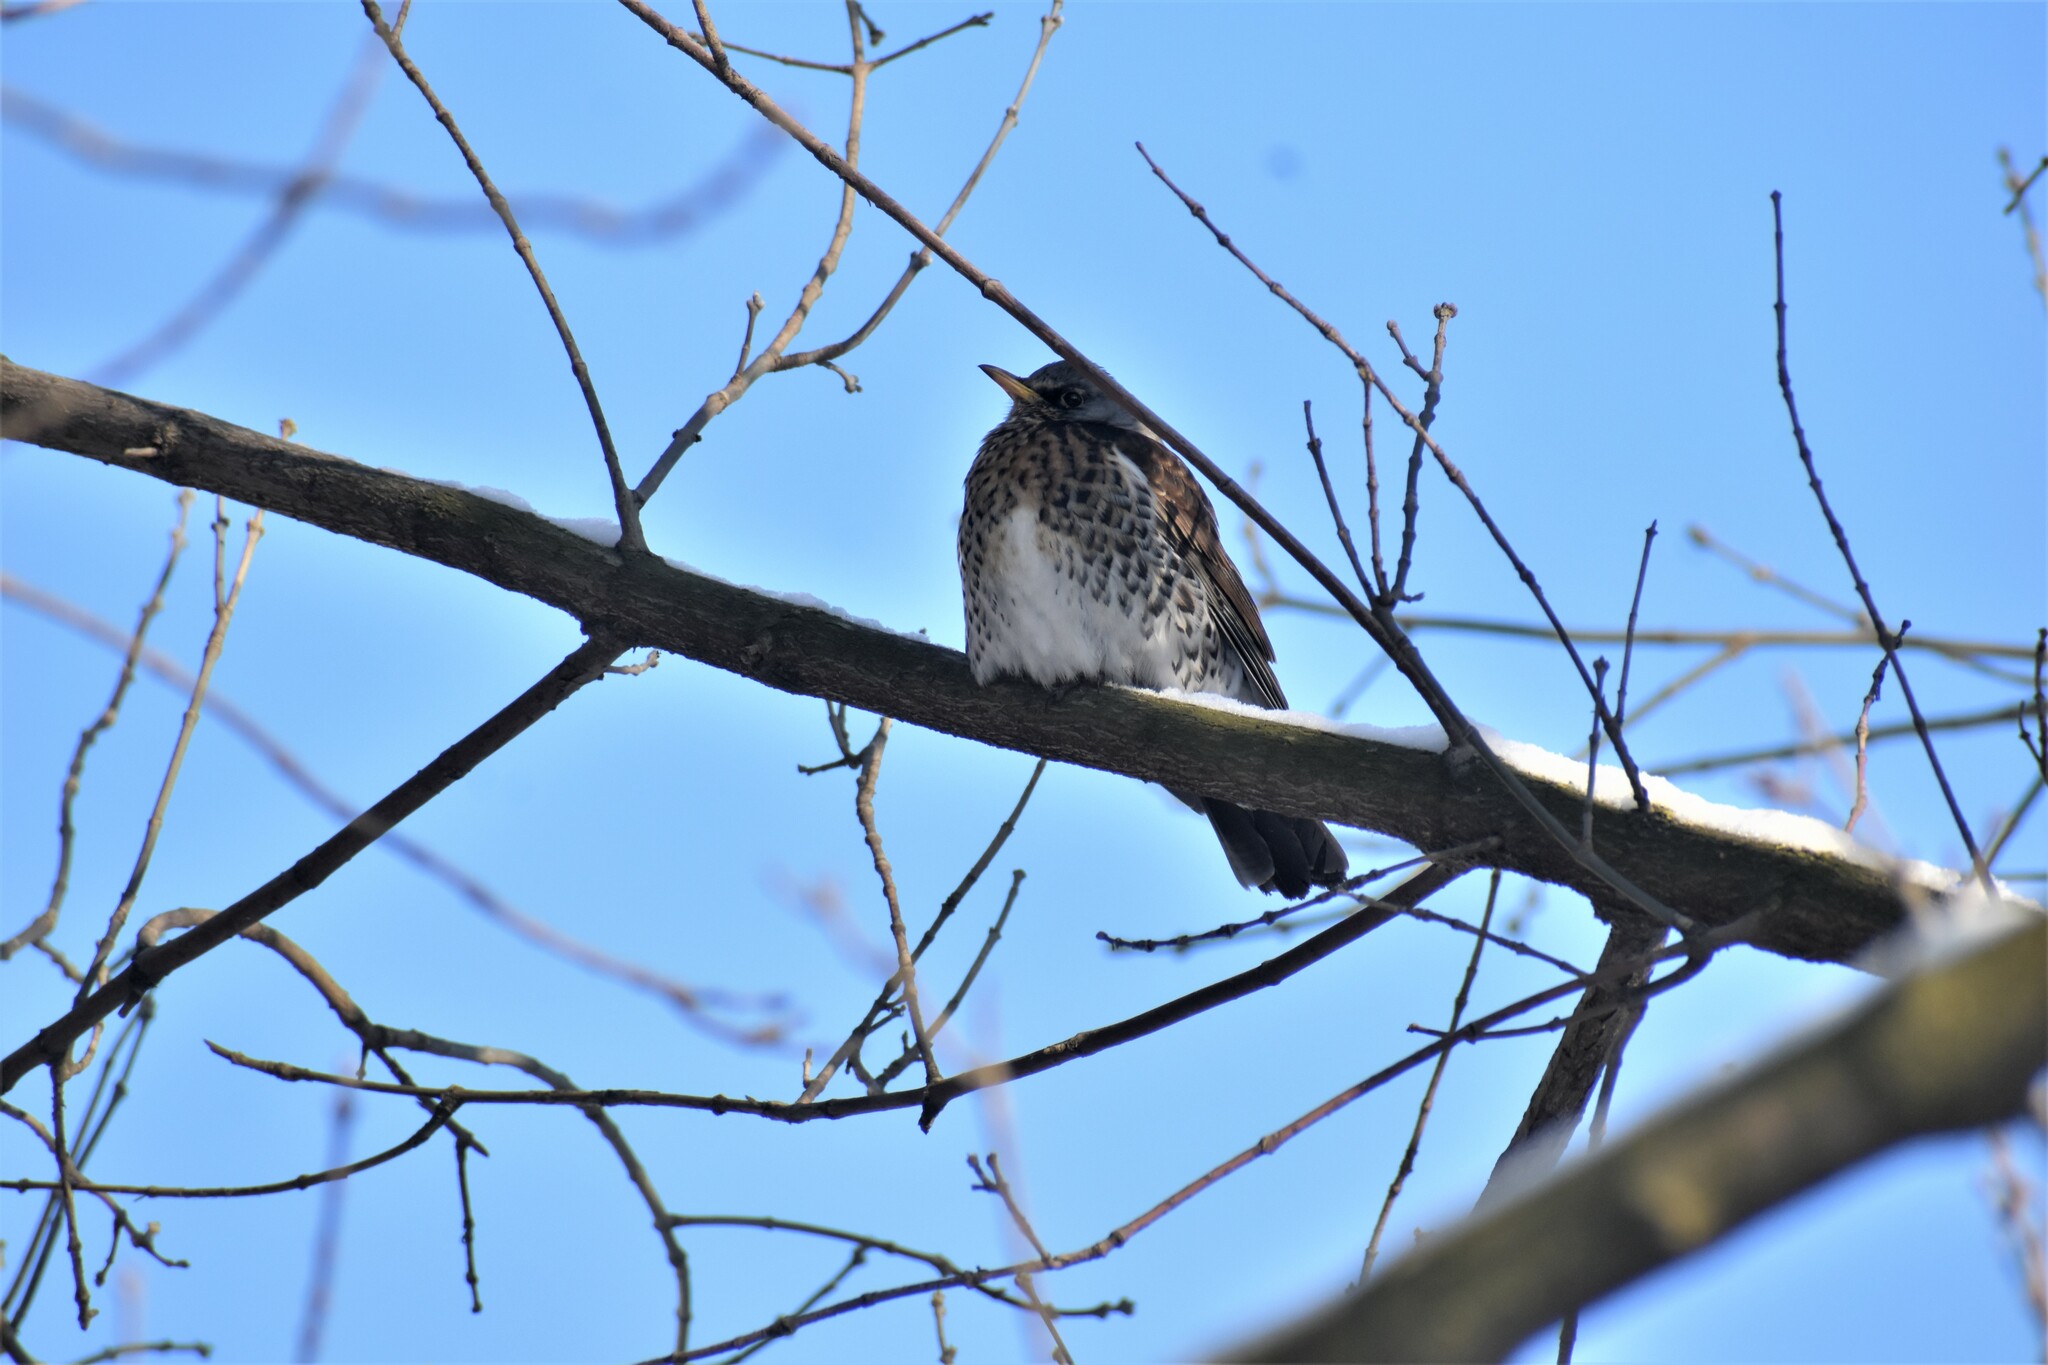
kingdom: Animalia
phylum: Chordata
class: Aves
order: Passeriformes
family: Turdidae
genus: Turdus
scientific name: Turdus pilaris
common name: Fieldfare
